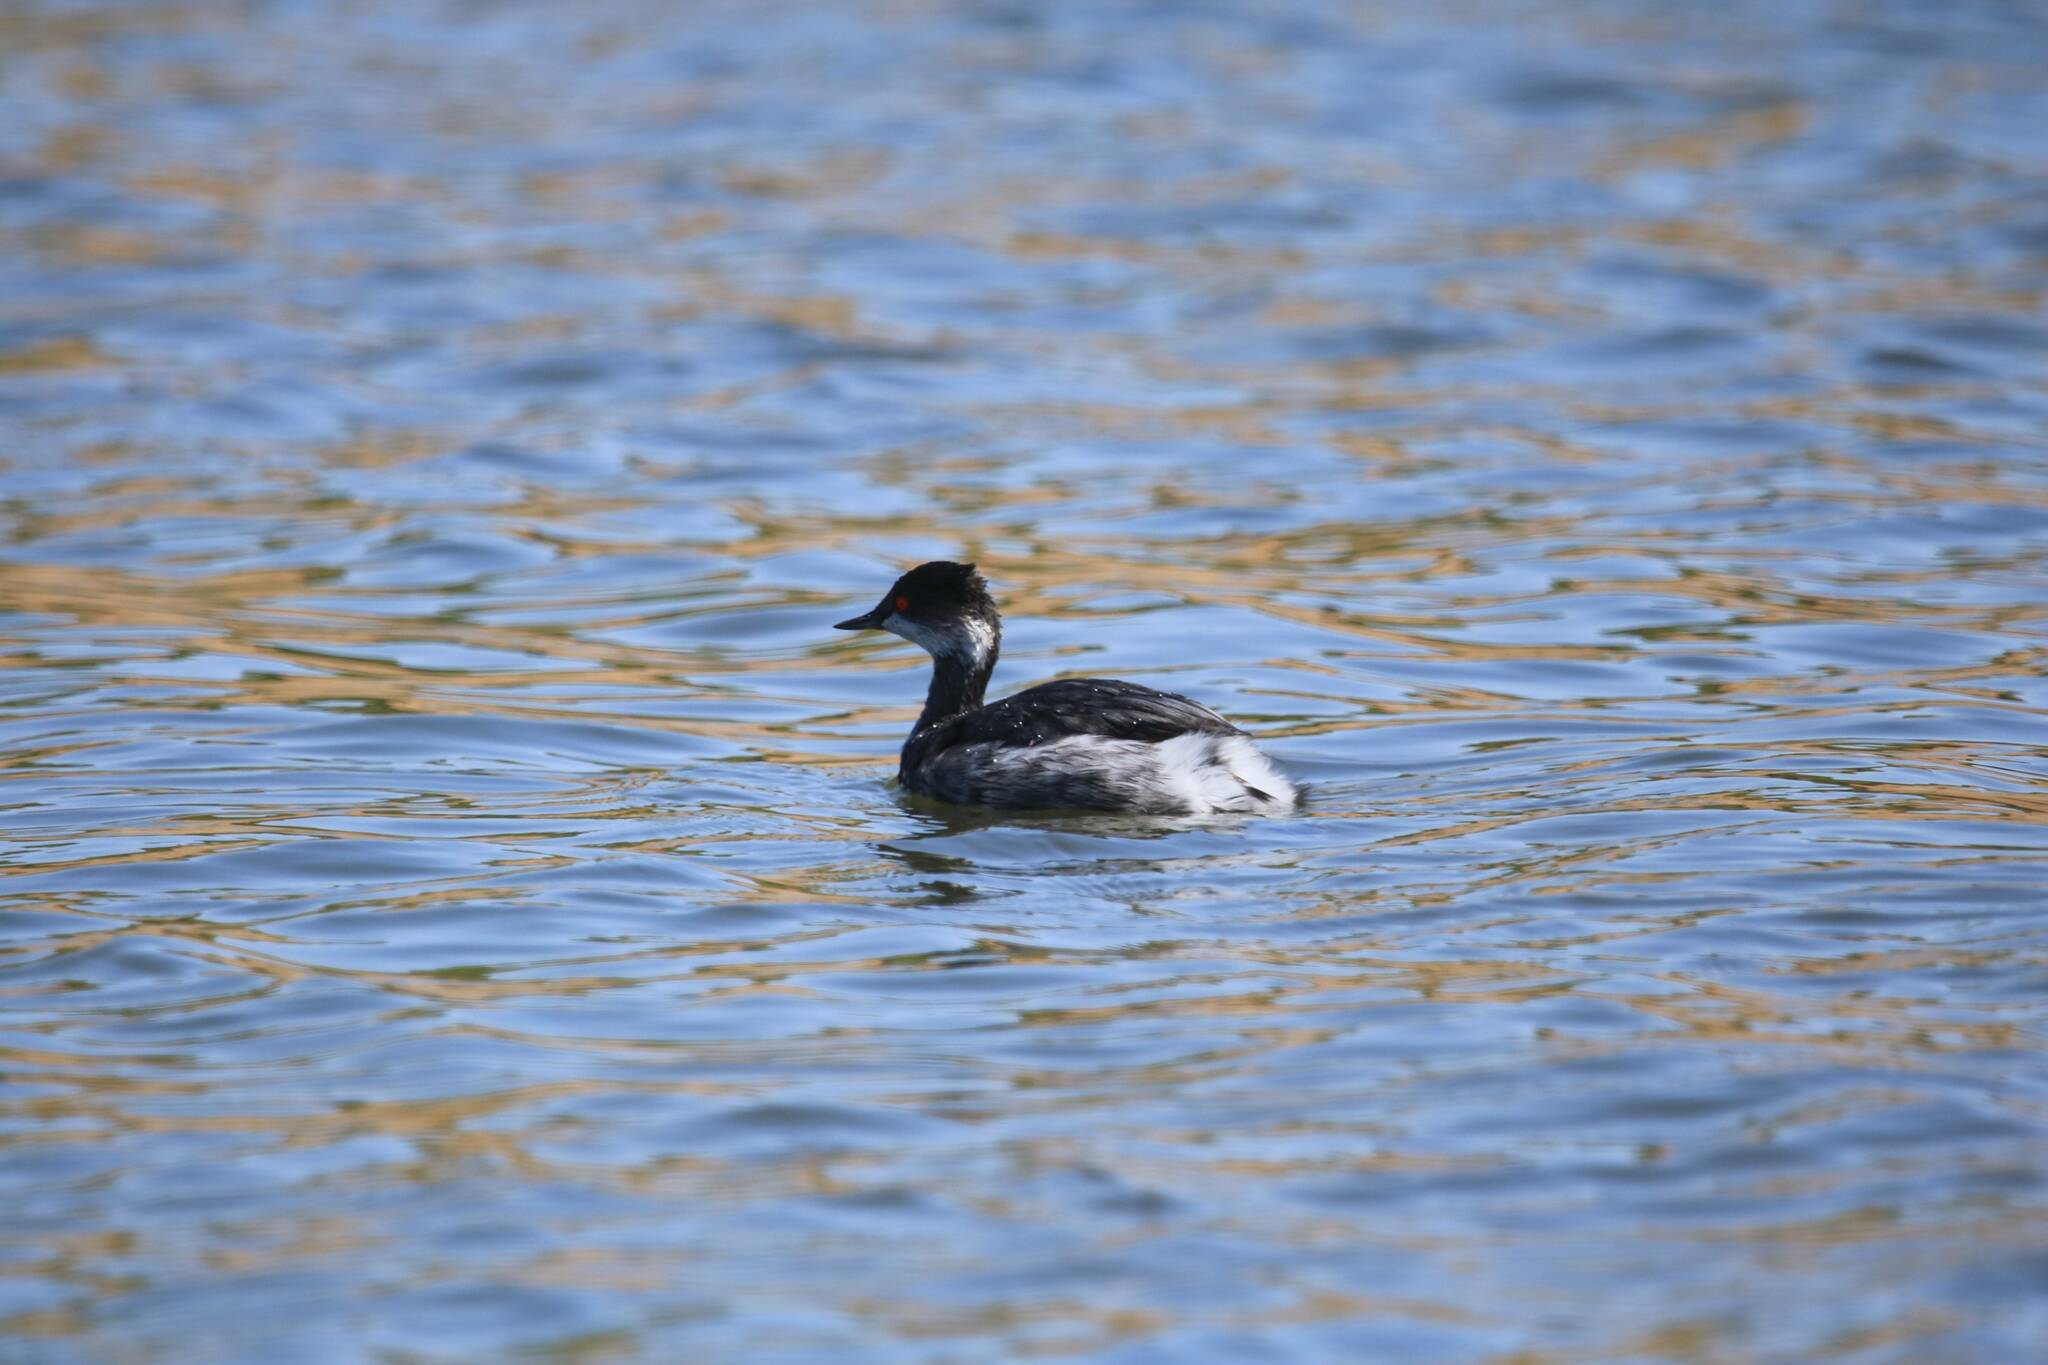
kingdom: Animalia
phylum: Chordata
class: Aves
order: Podicipediformes
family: Podicipedidae
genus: Podiceps
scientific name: Podiceps nigricollis
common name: Black-necked grebe
